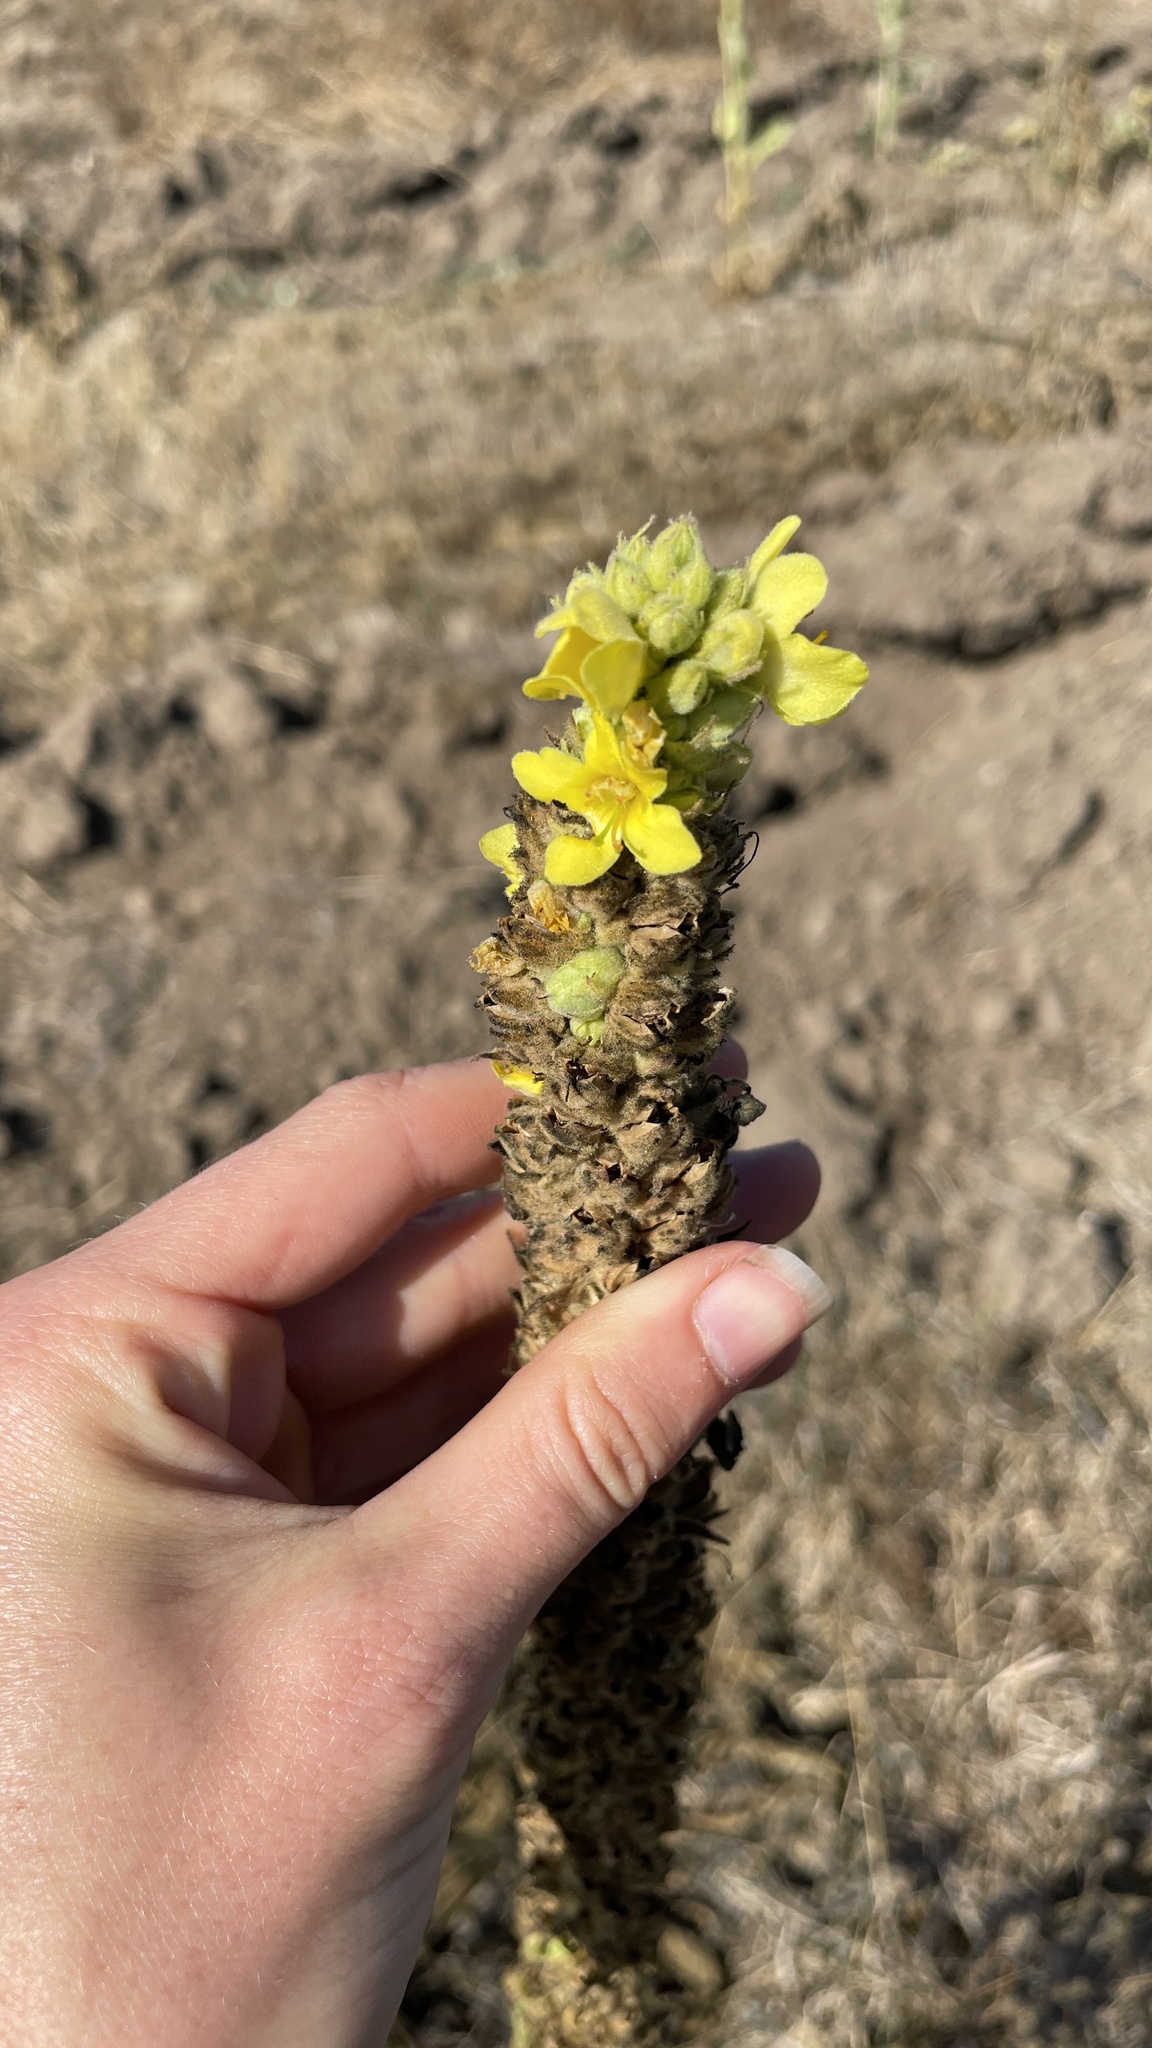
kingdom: Plantae
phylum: Tracheophyta
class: Magnoliopsida
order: Lamiales
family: Scrophulariaceae
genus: Verbascum
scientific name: Verbascum thapsus
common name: Common mullein
